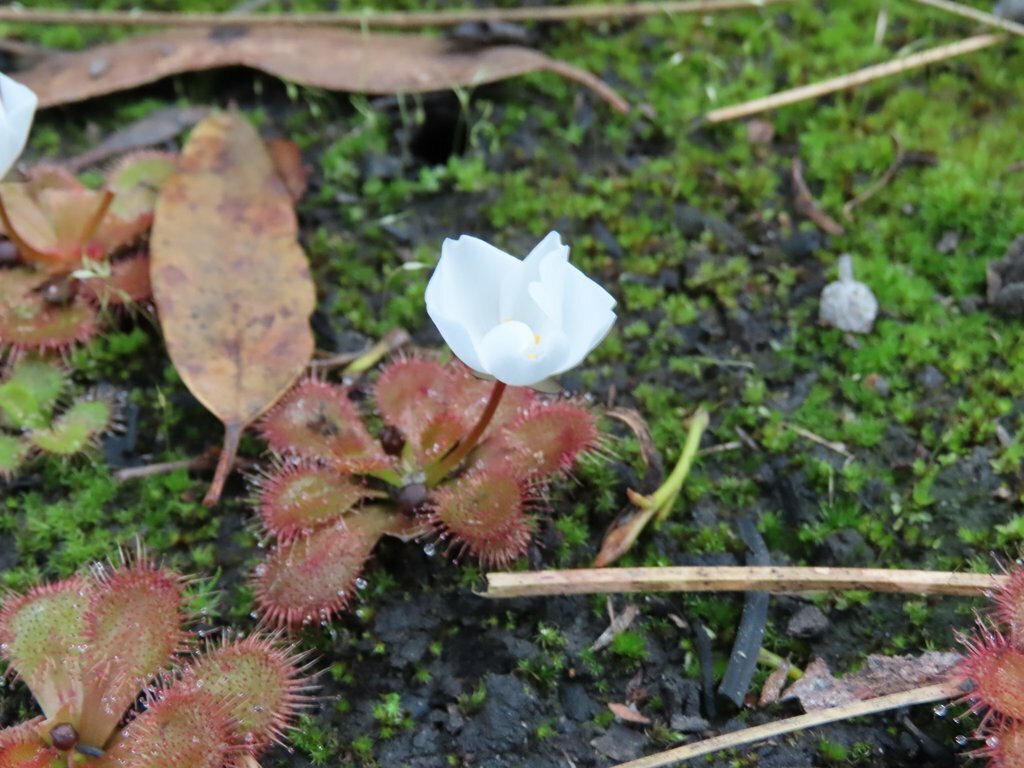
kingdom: Plantae
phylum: Tracheophyta
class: Magnoliopsida
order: Caryophyllales
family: Droseraceae
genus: Drosera
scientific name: Drosera aberrans
